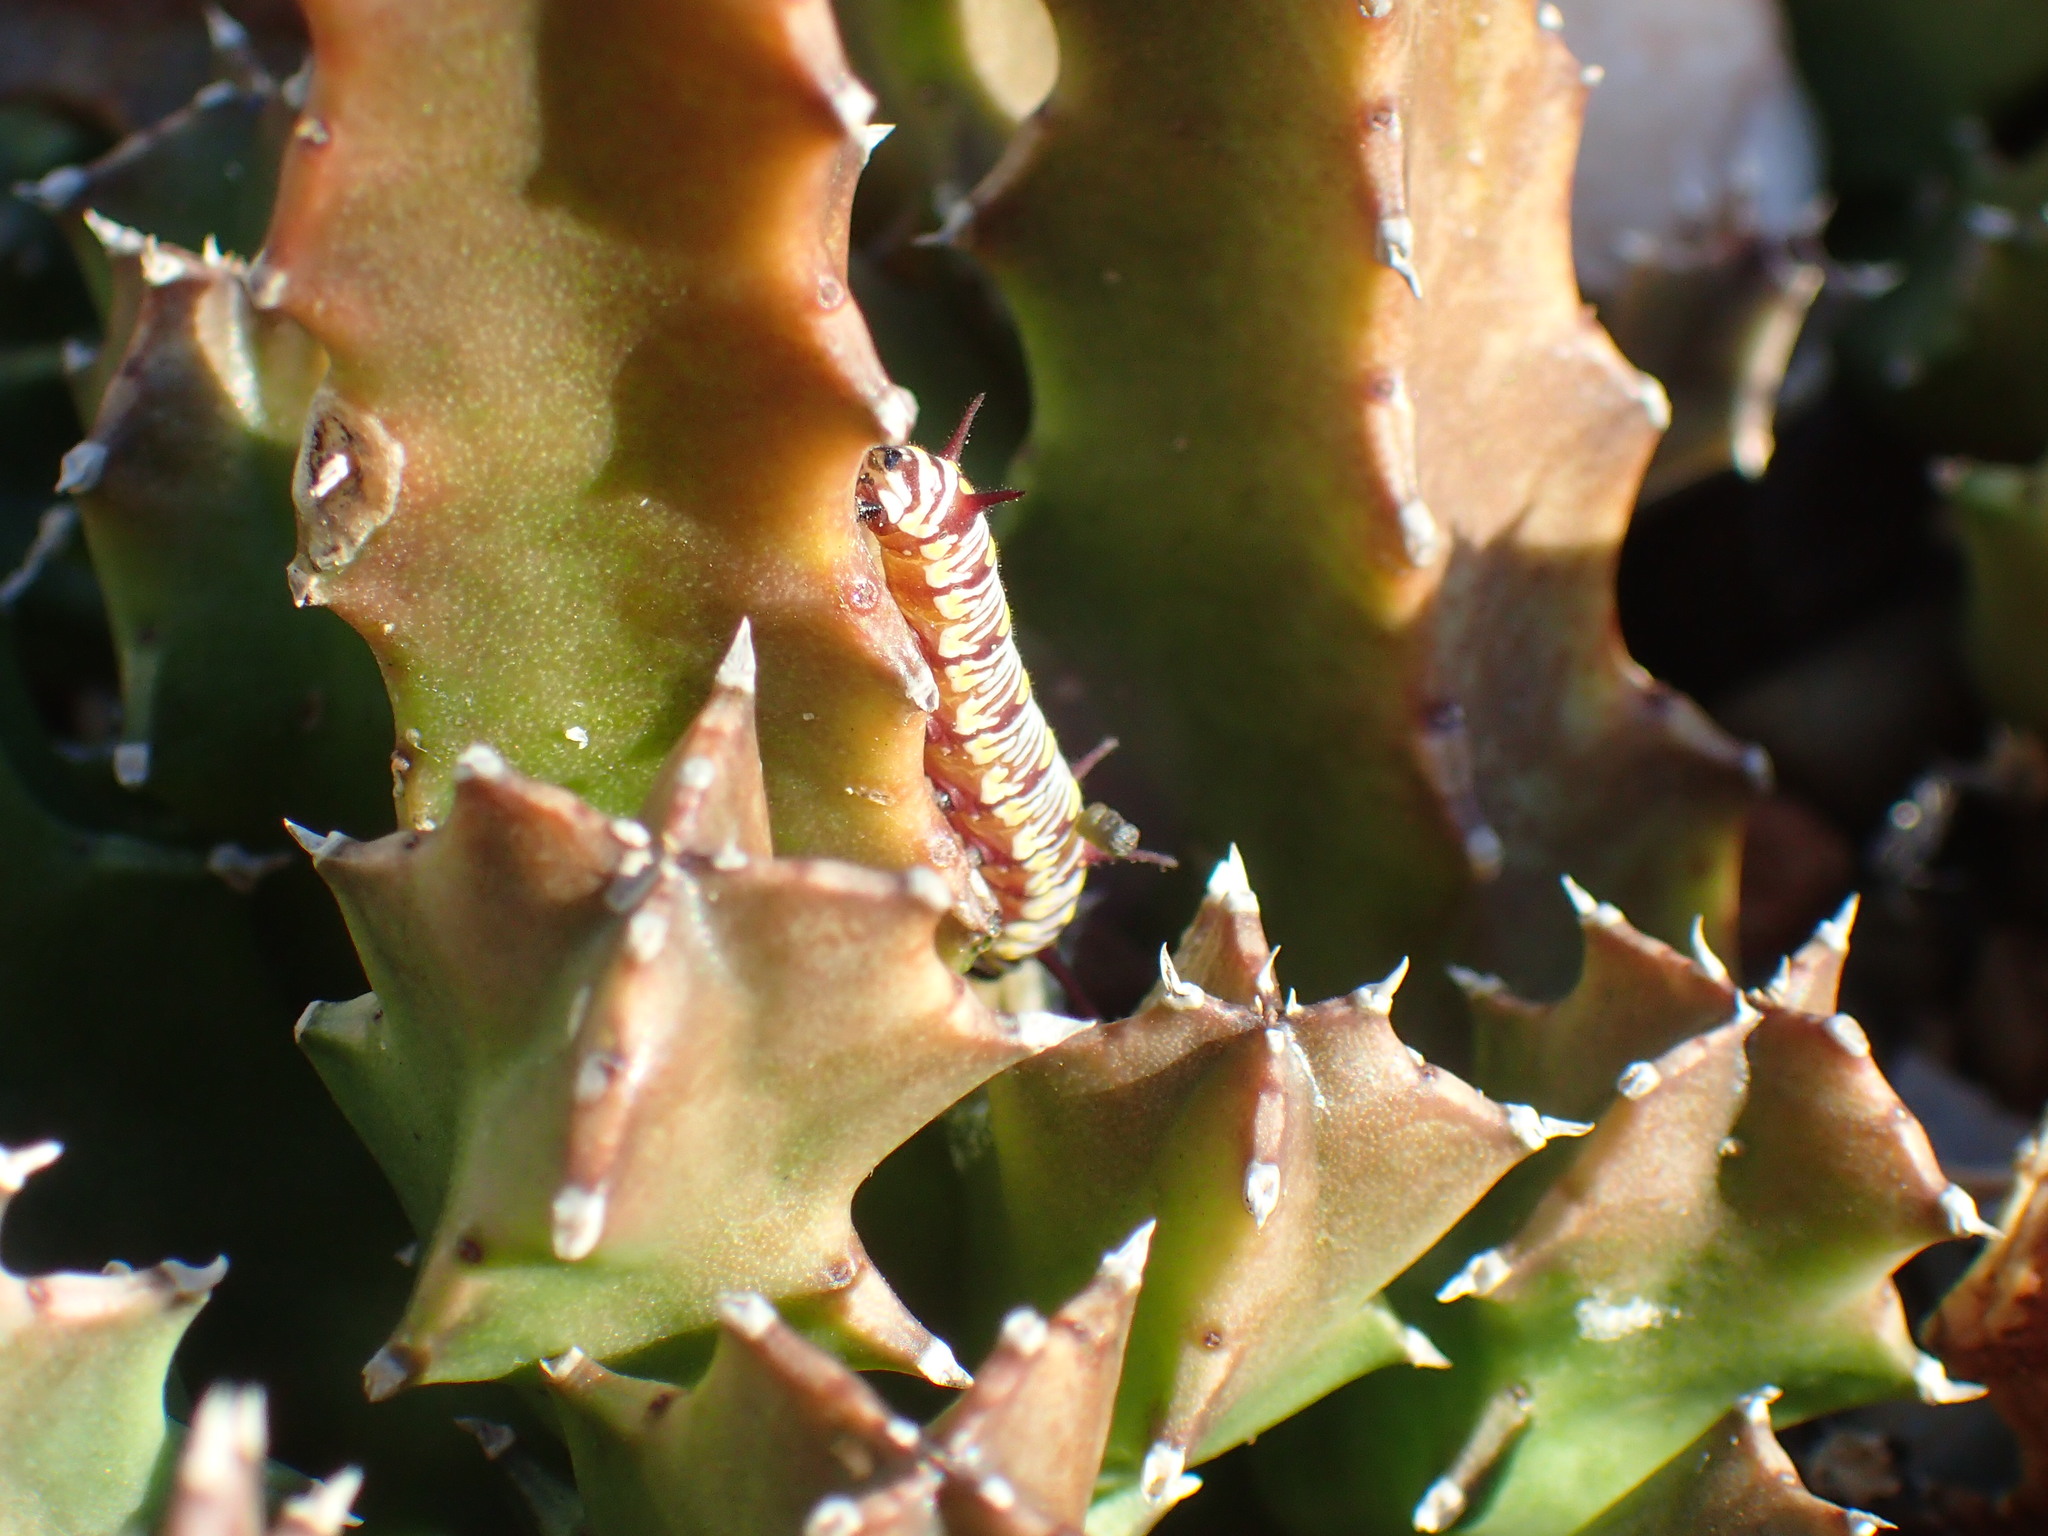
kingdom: Animalia
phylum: Arthropoda
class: Insecta
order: Lepidoptera
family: Nymphalidae
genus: Danaus
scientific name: Danaus chrysippus
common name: Plain tiger
